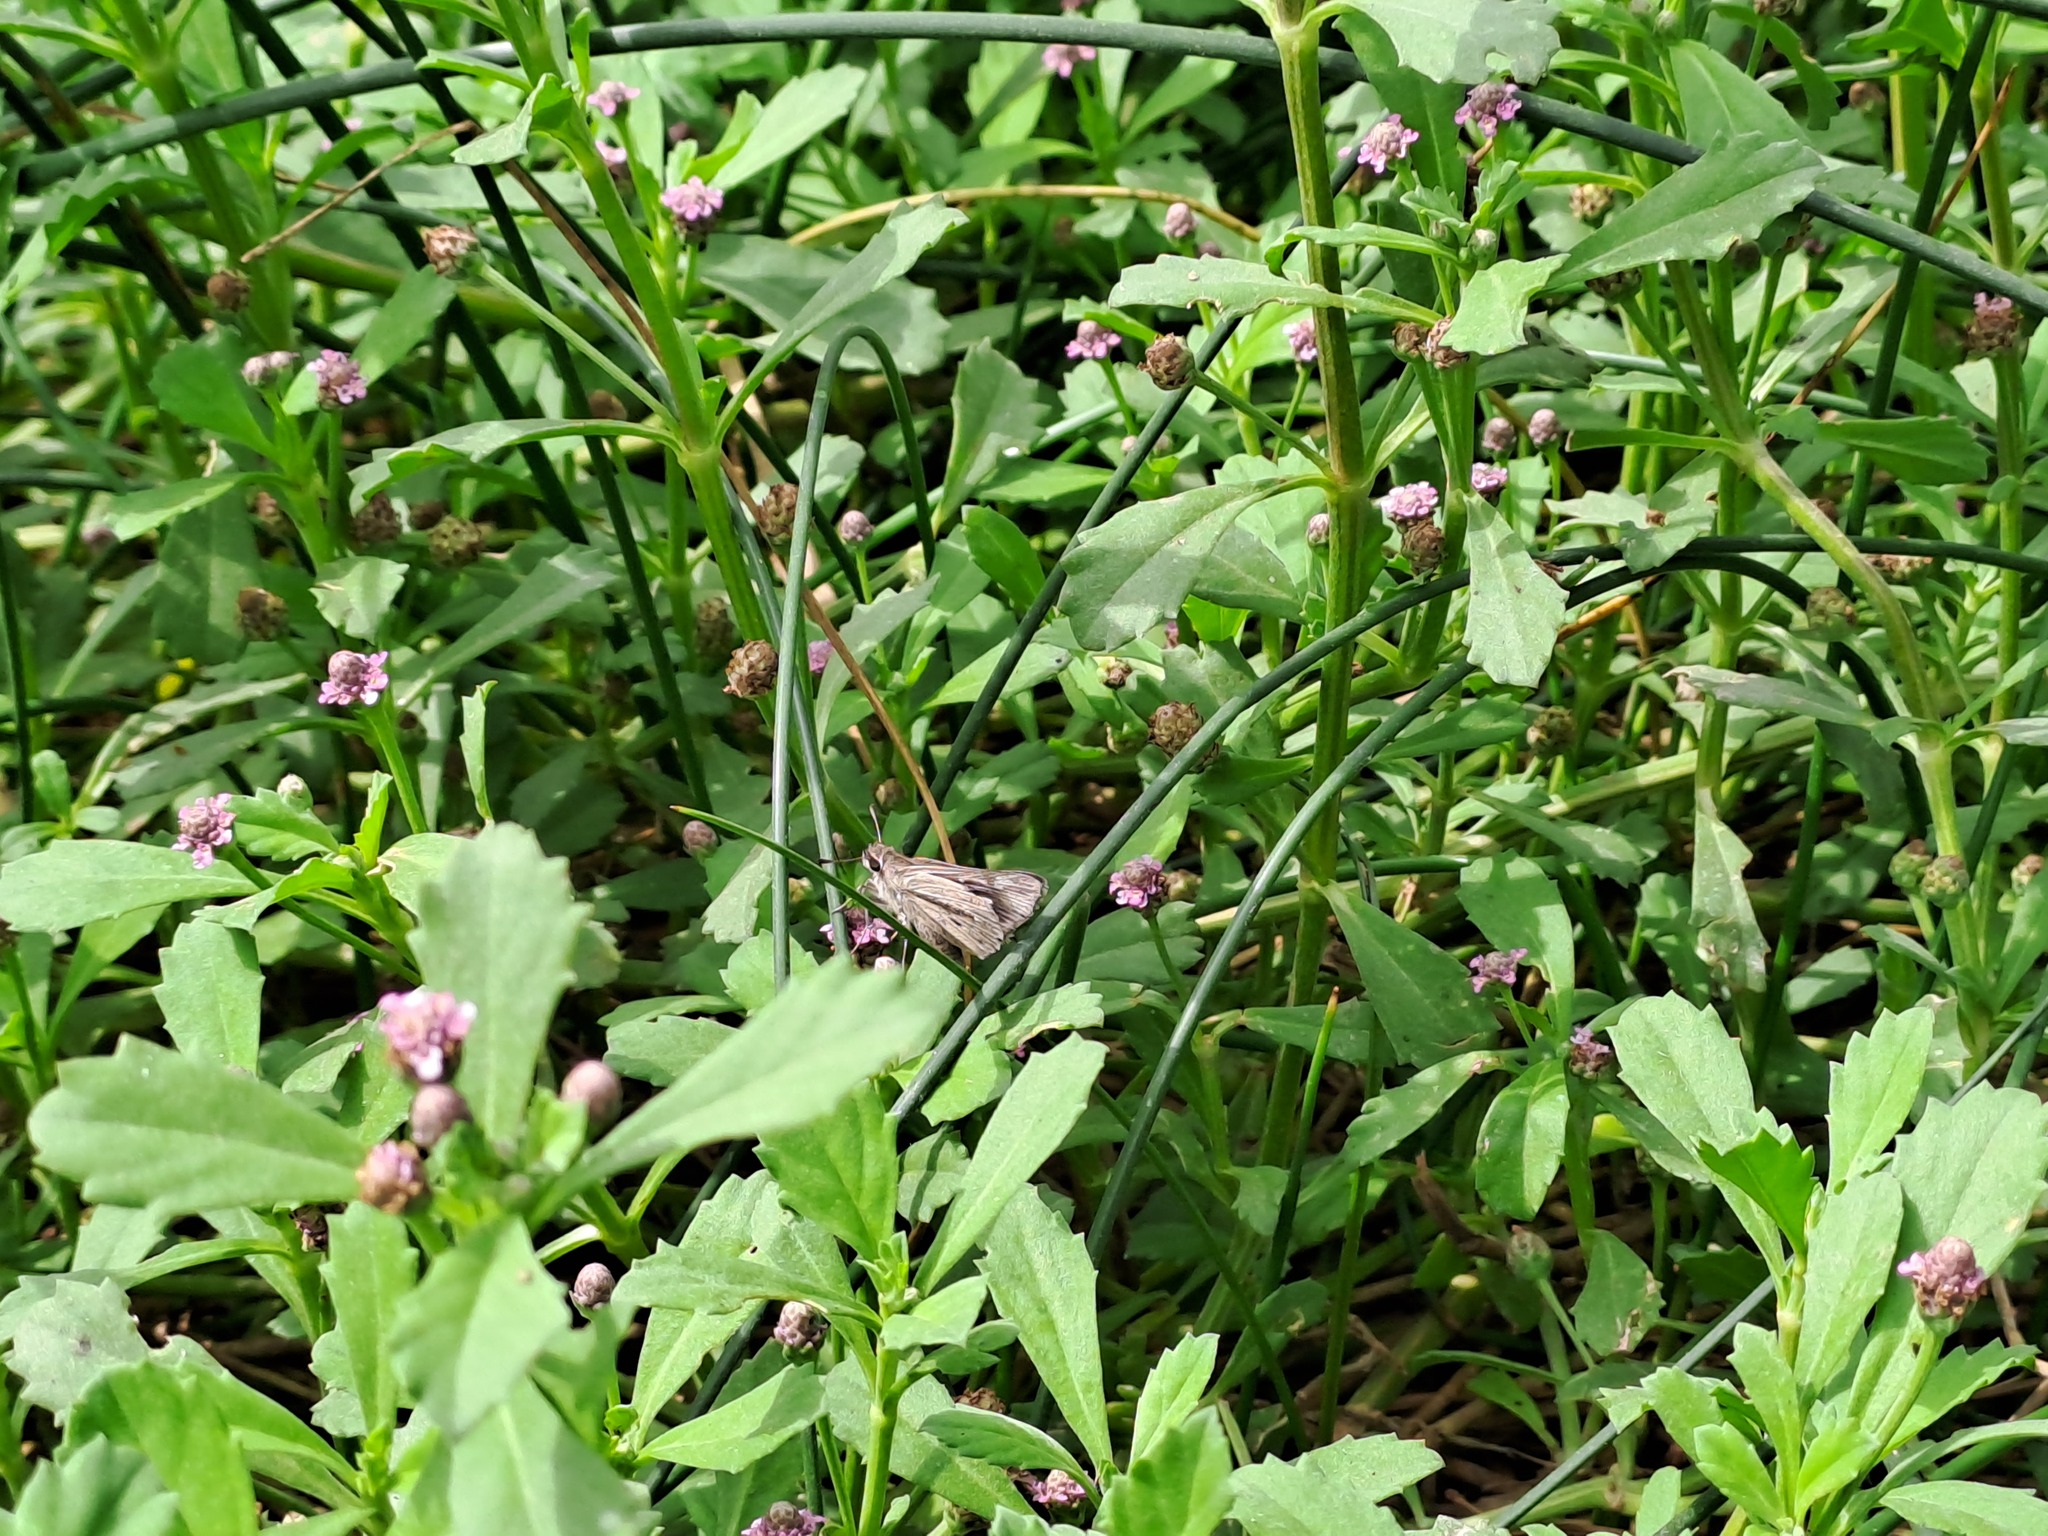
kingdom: Animalia
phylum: Arthropoda
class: Insecta
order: Lepidoptera
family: Hesperiidae
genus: Lerodea
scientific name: Lerodea gracia
